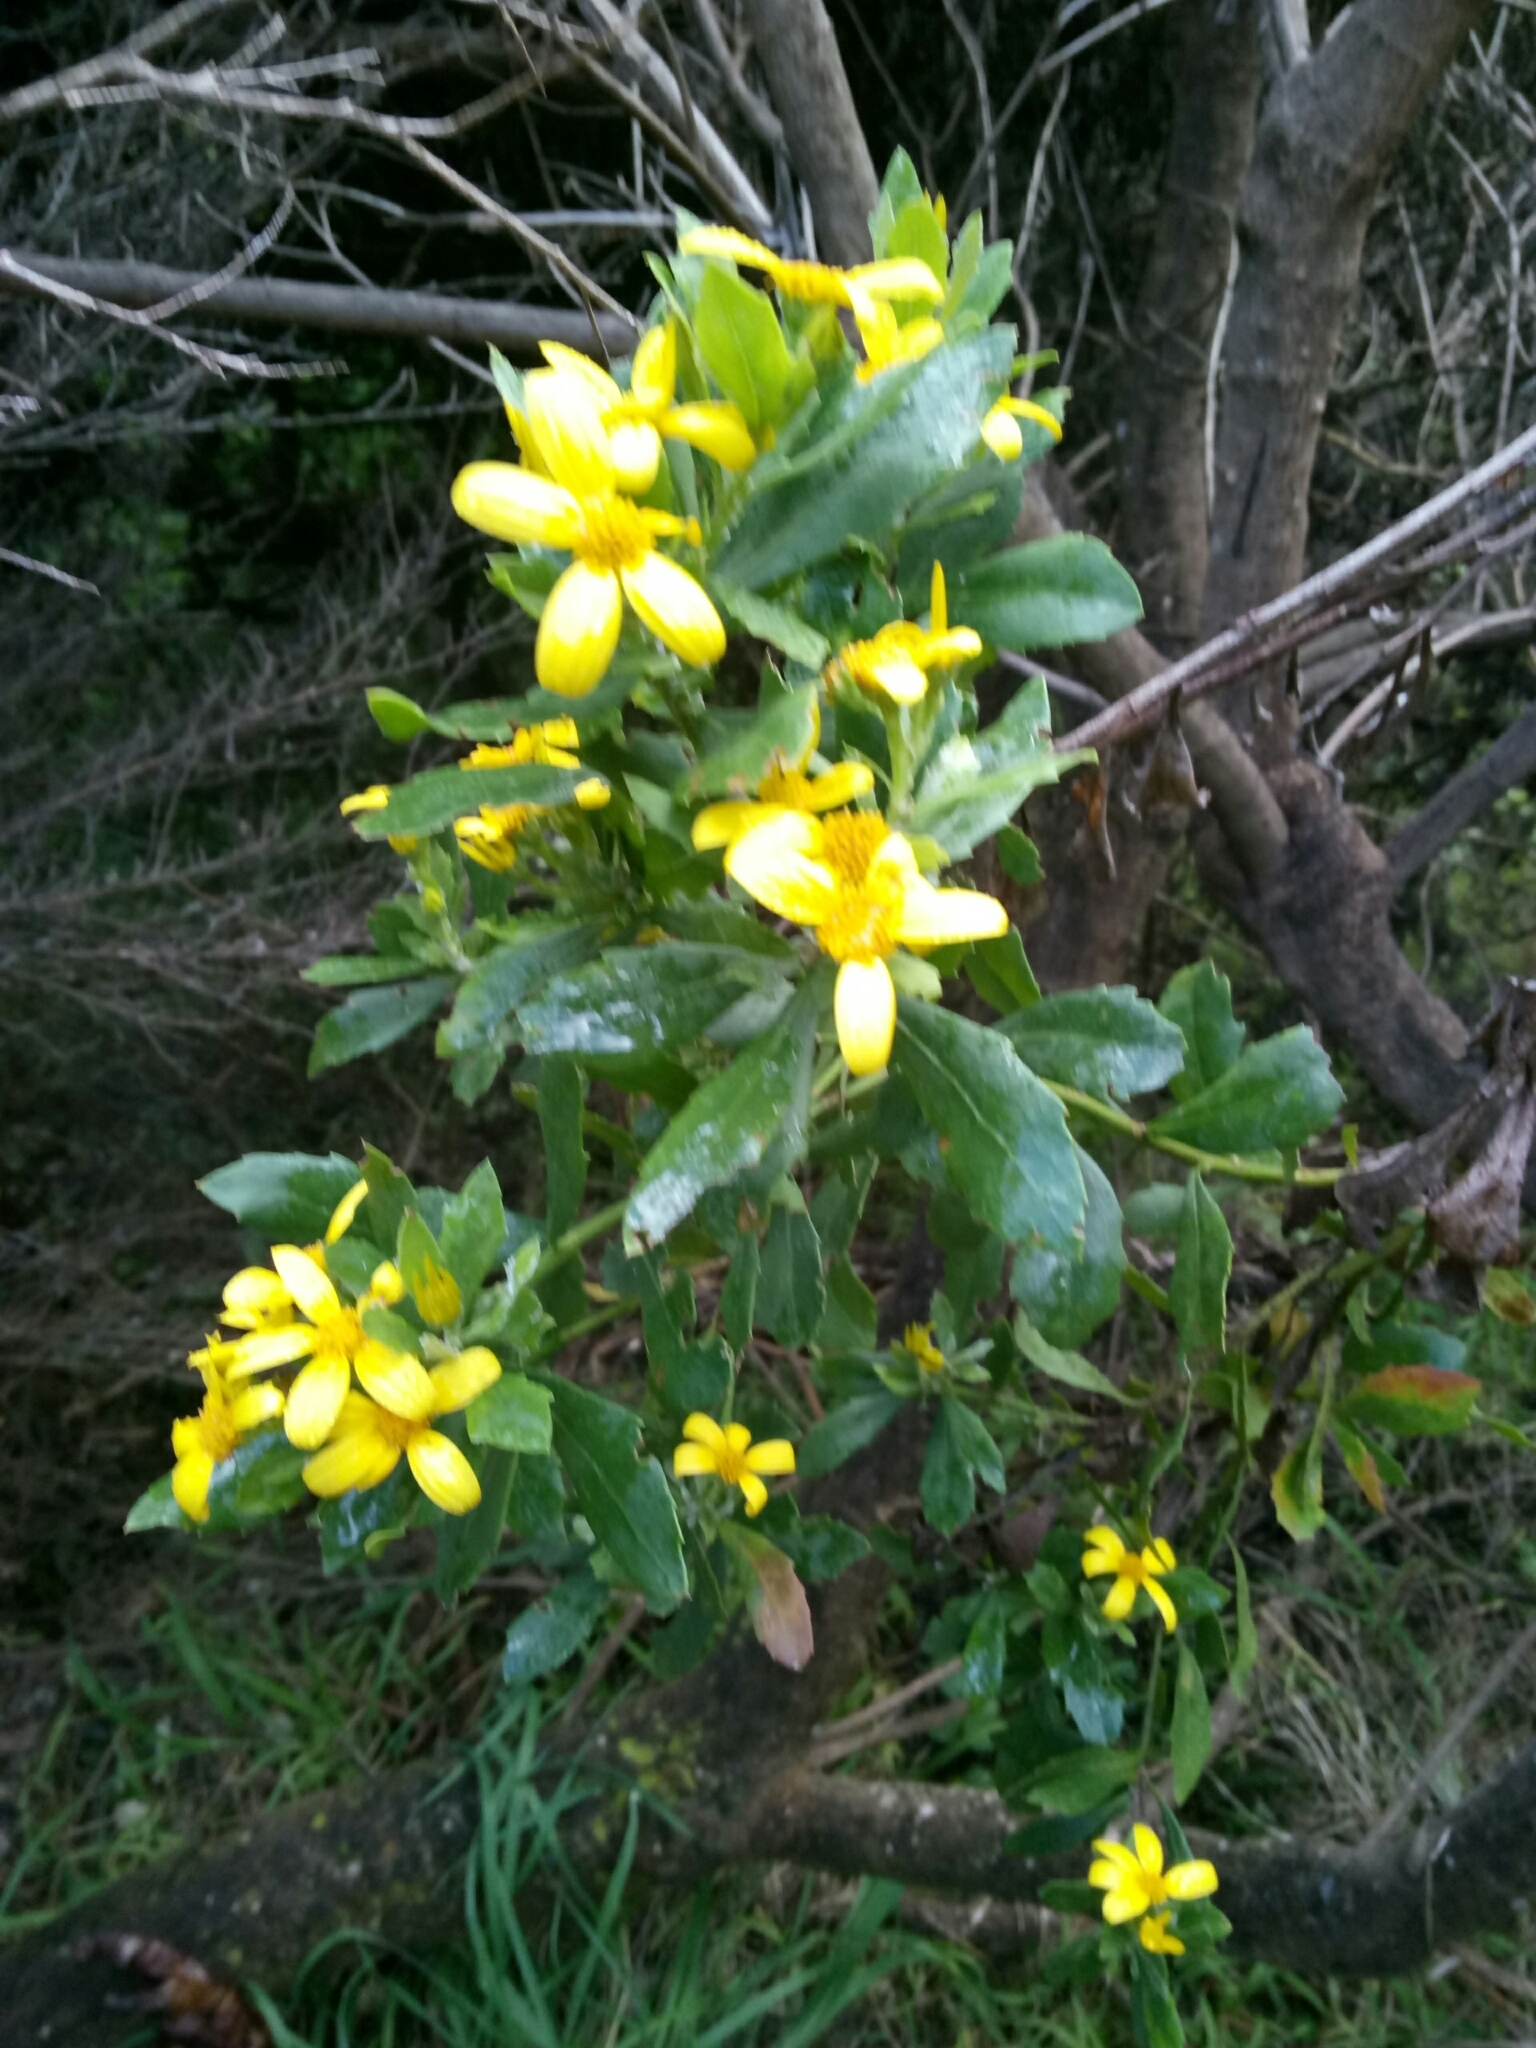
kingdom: Plantae
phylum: Tracheophyta
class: Magnoliopsida
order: Asterales
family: Asteraceae
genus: Osteospermum
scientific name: Osteospermum moniliferum
